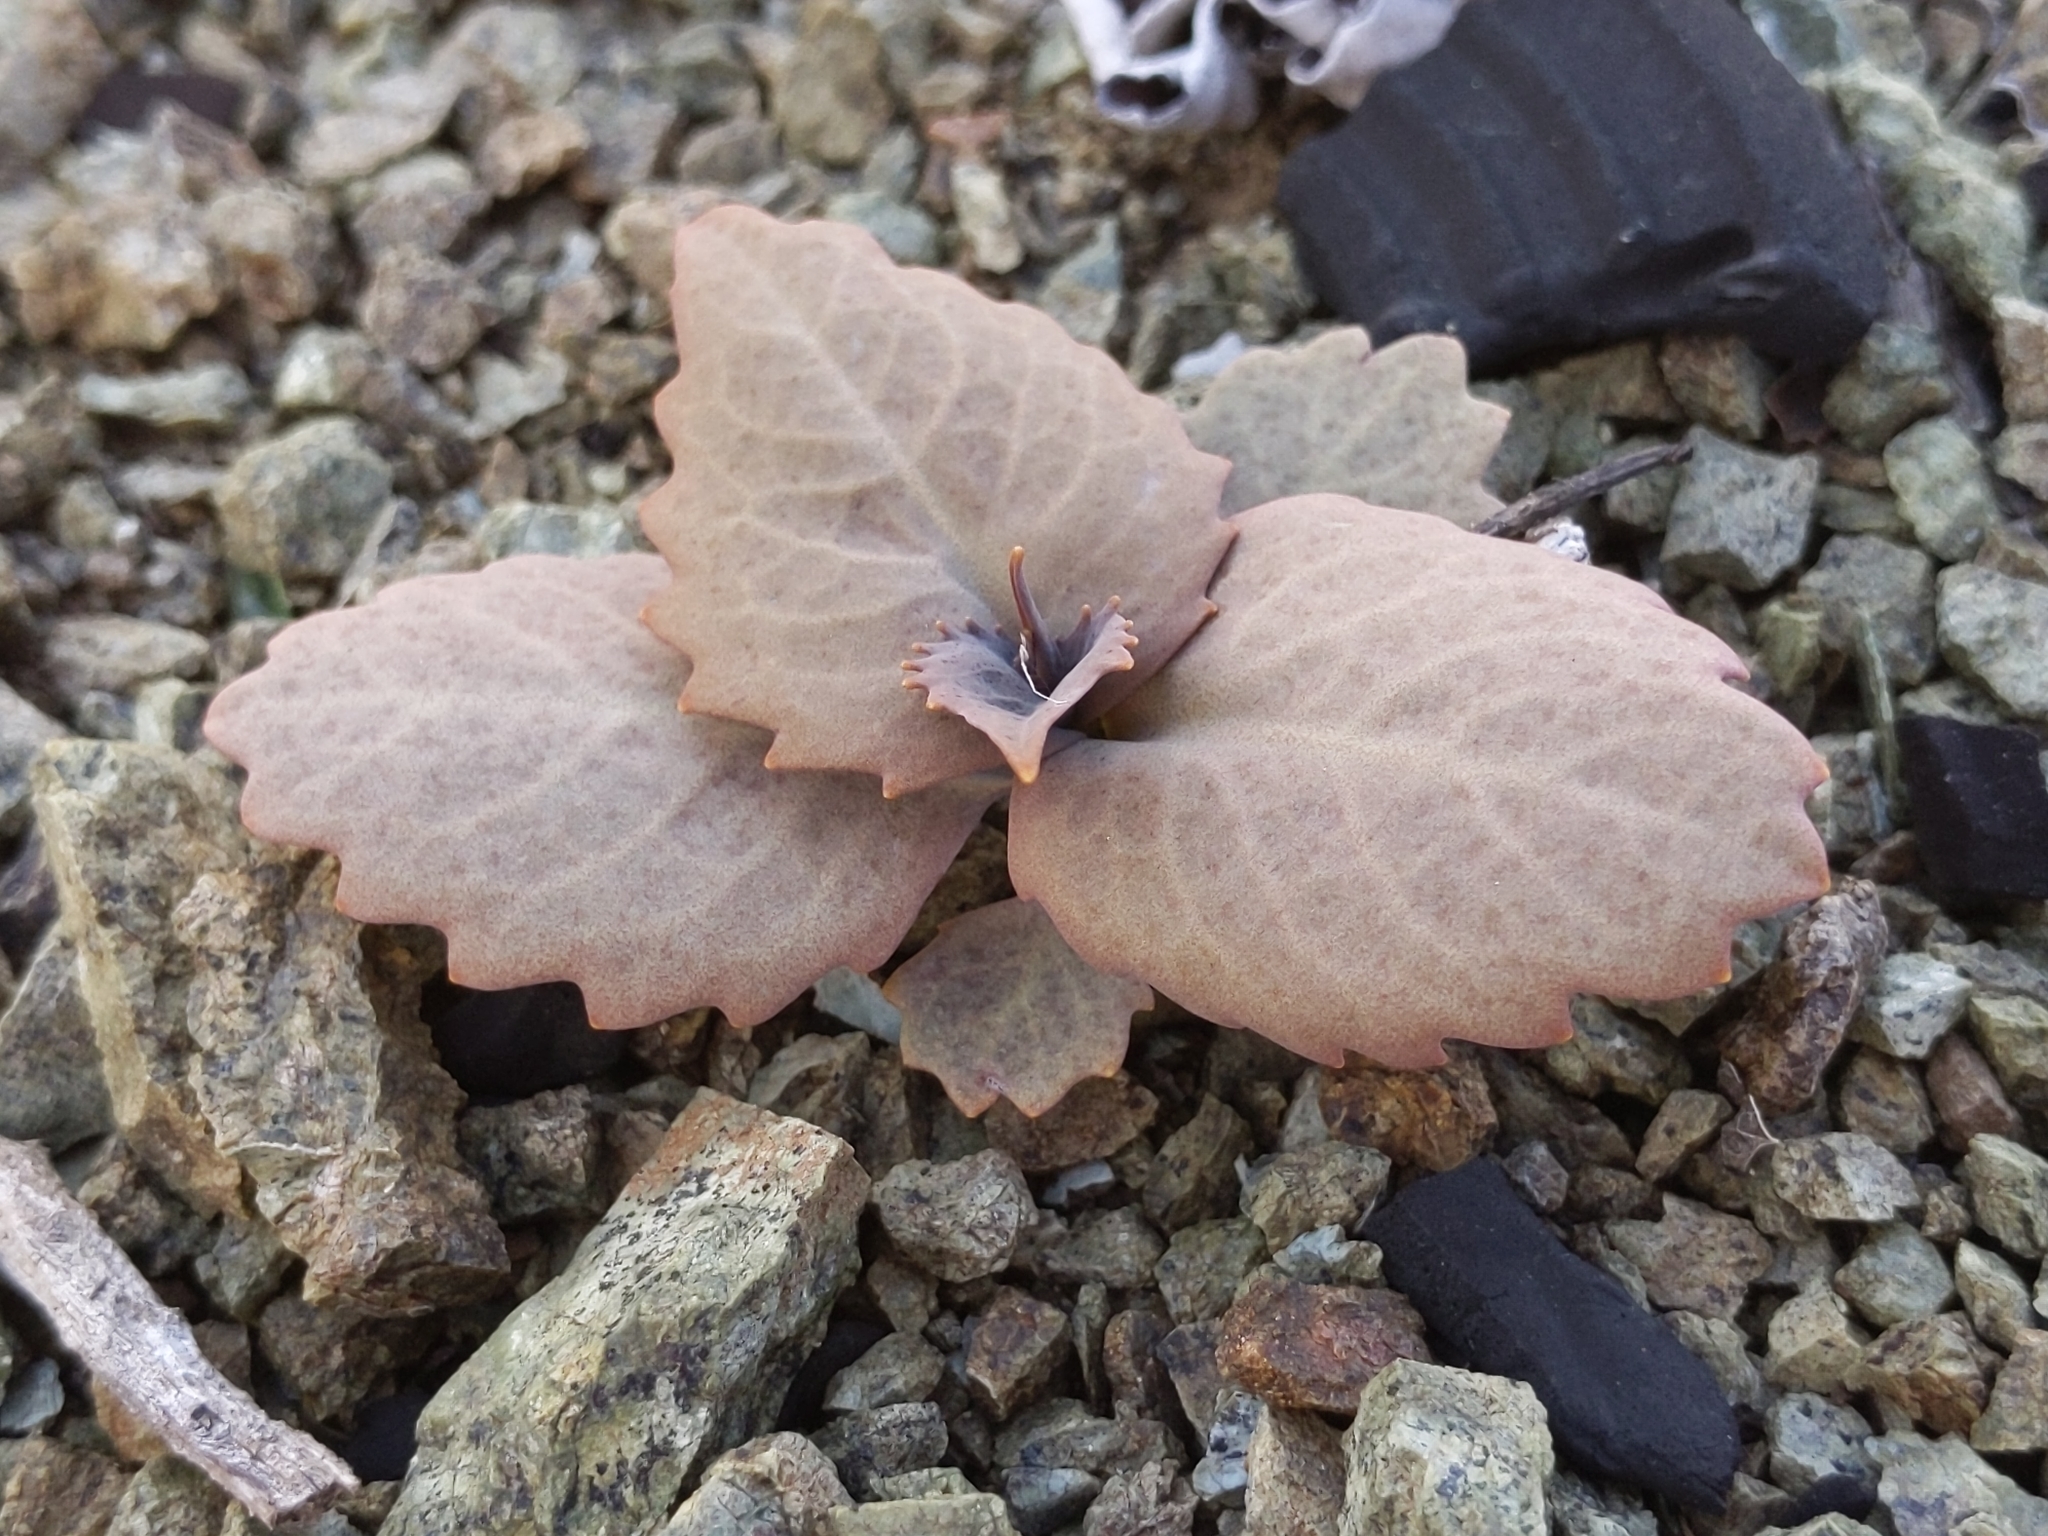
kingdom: Plantae
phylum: Tracheophyta
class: Magnoliopsida
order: Brassicales
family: Brassicaceae
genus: Streptanthus
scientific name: Streptanthus breweri
